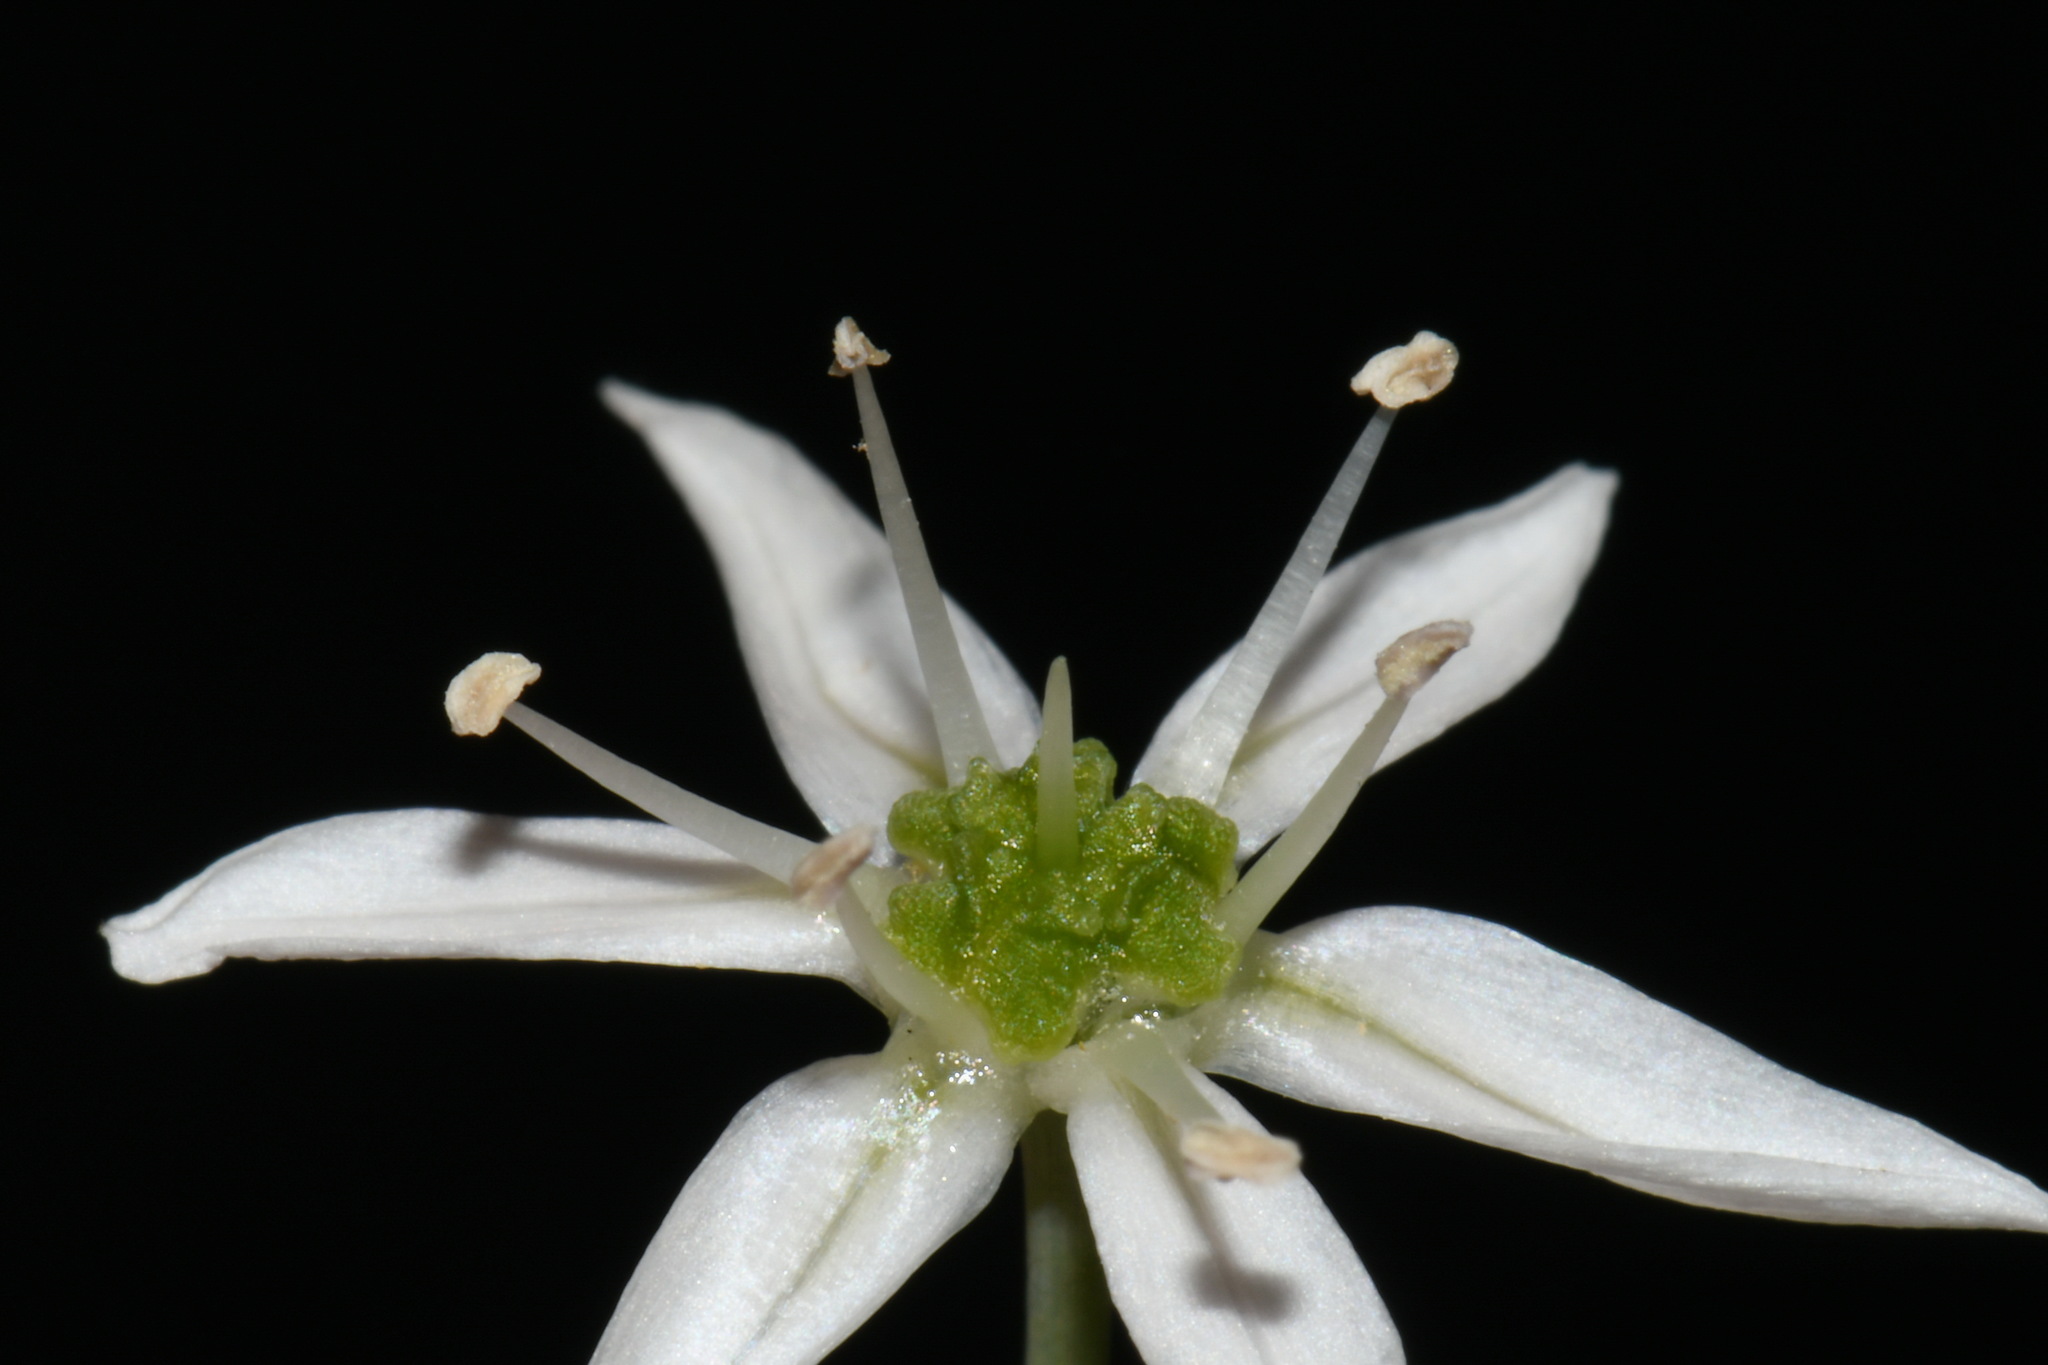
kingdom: Plantae
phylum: Tracheophyta
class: Liliopsida
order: Asparagales
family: Amaryllidaceae
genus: Allium
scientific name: Allium cuthbertii
